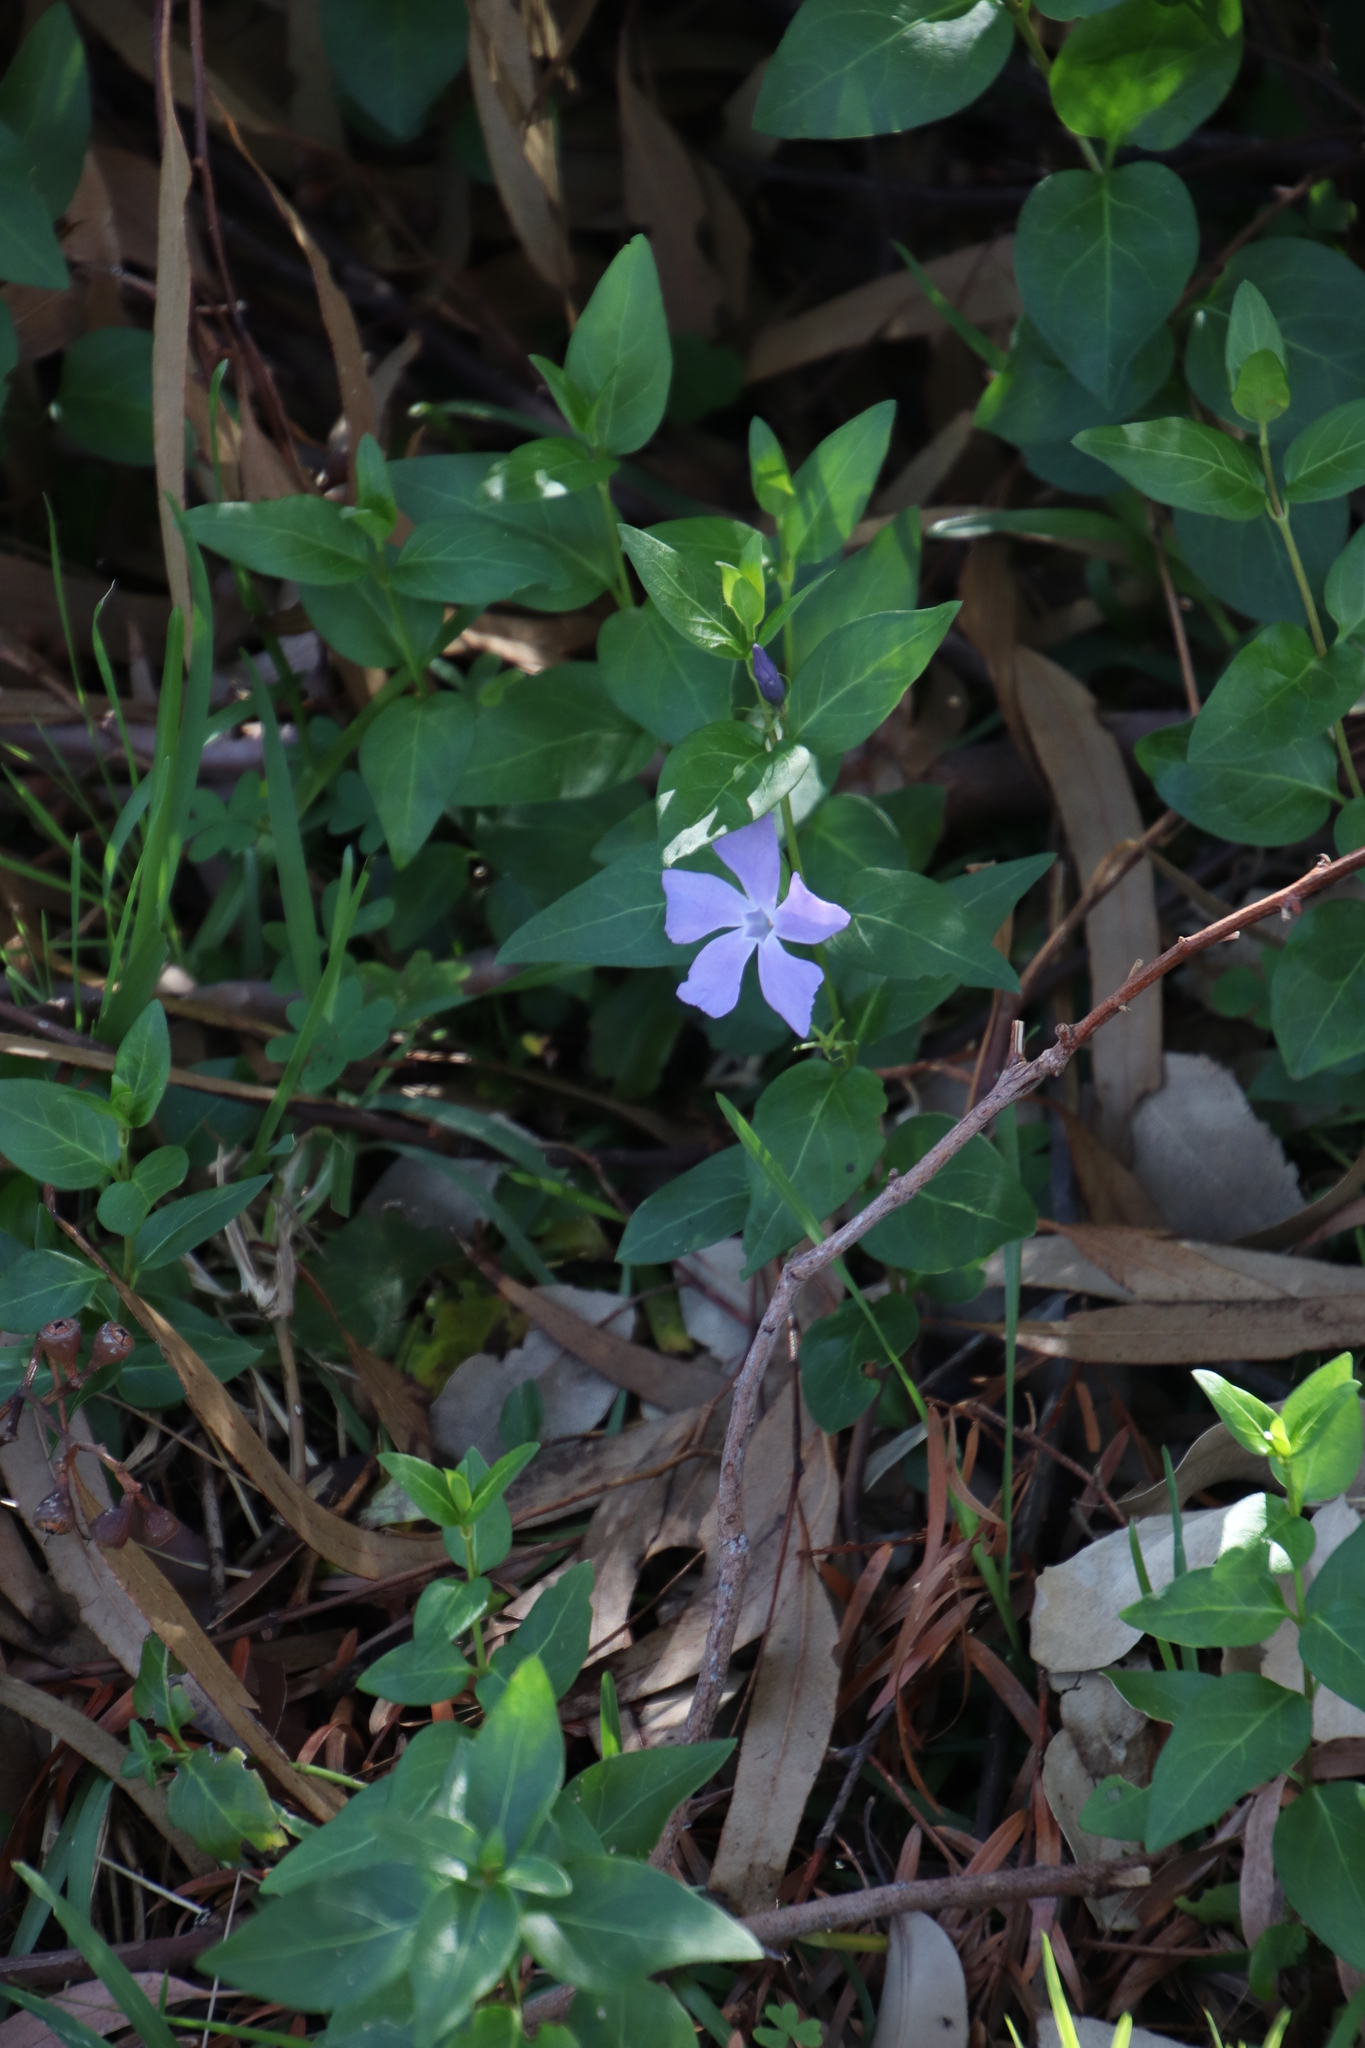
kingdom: Plantae
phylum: Tracheophyta
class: Magnoliopsida
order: Gentianales
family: Apocynaceae
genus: Vinca
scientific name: Vinca major
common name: Greater periwinkle
